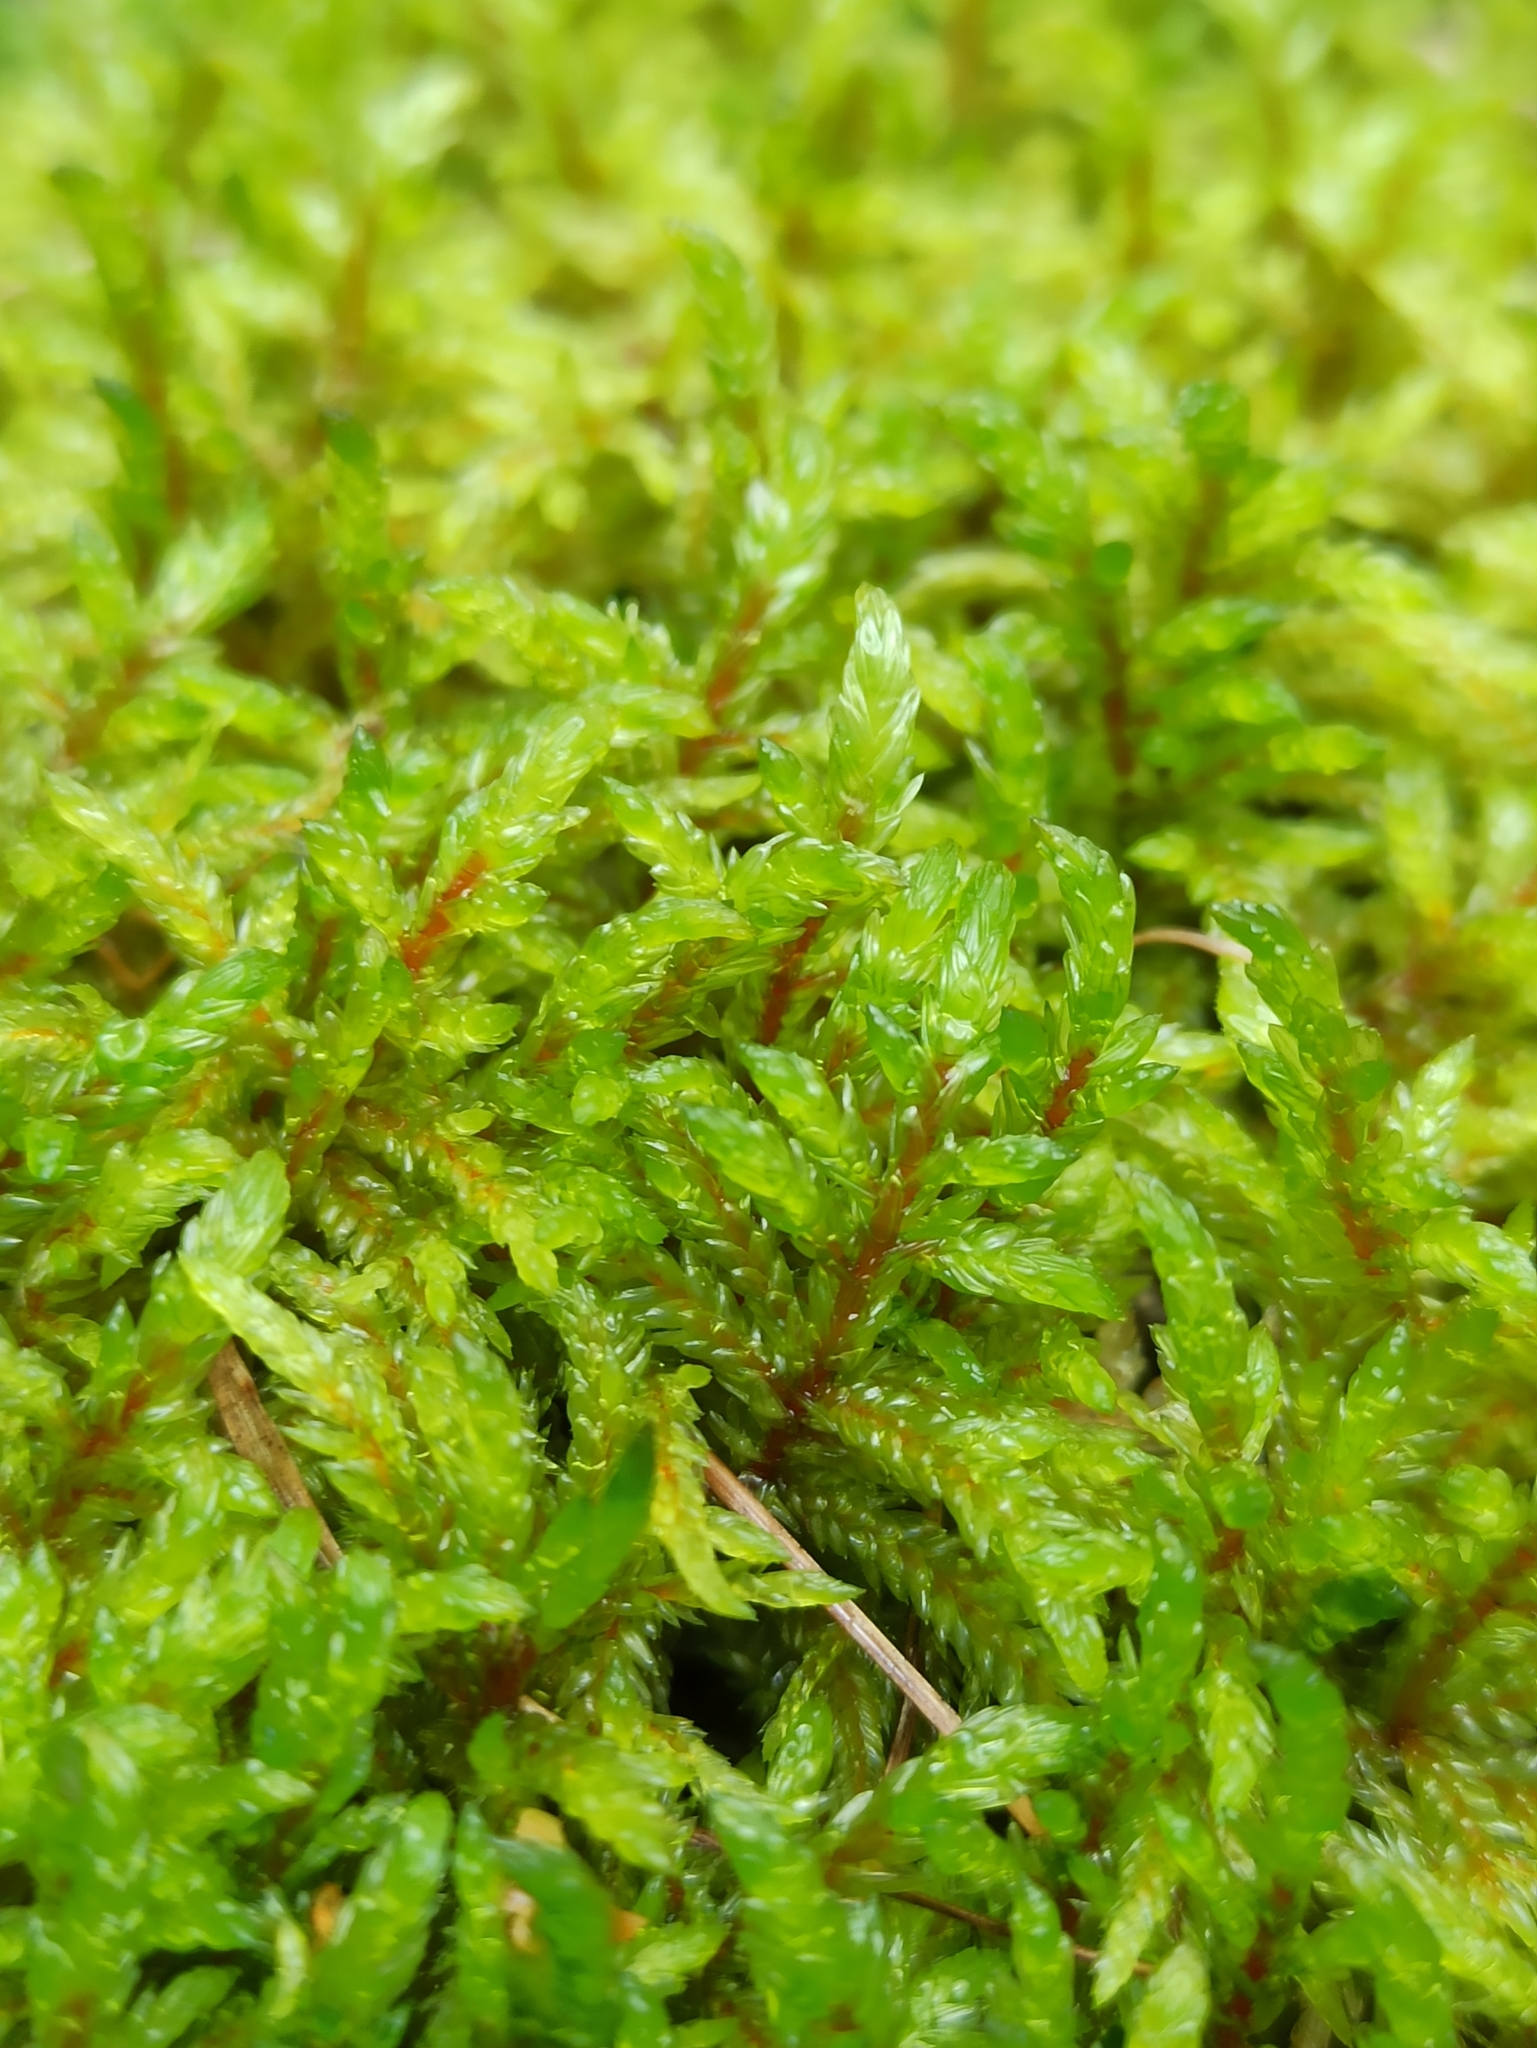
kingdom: Plantae
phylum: Bryophyta
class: Bryopsida
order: Hypnales
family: Hylocomiaceae
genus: Pleurozium
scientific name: Pleurozium schreberi
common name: Red-stemmed feather moss
